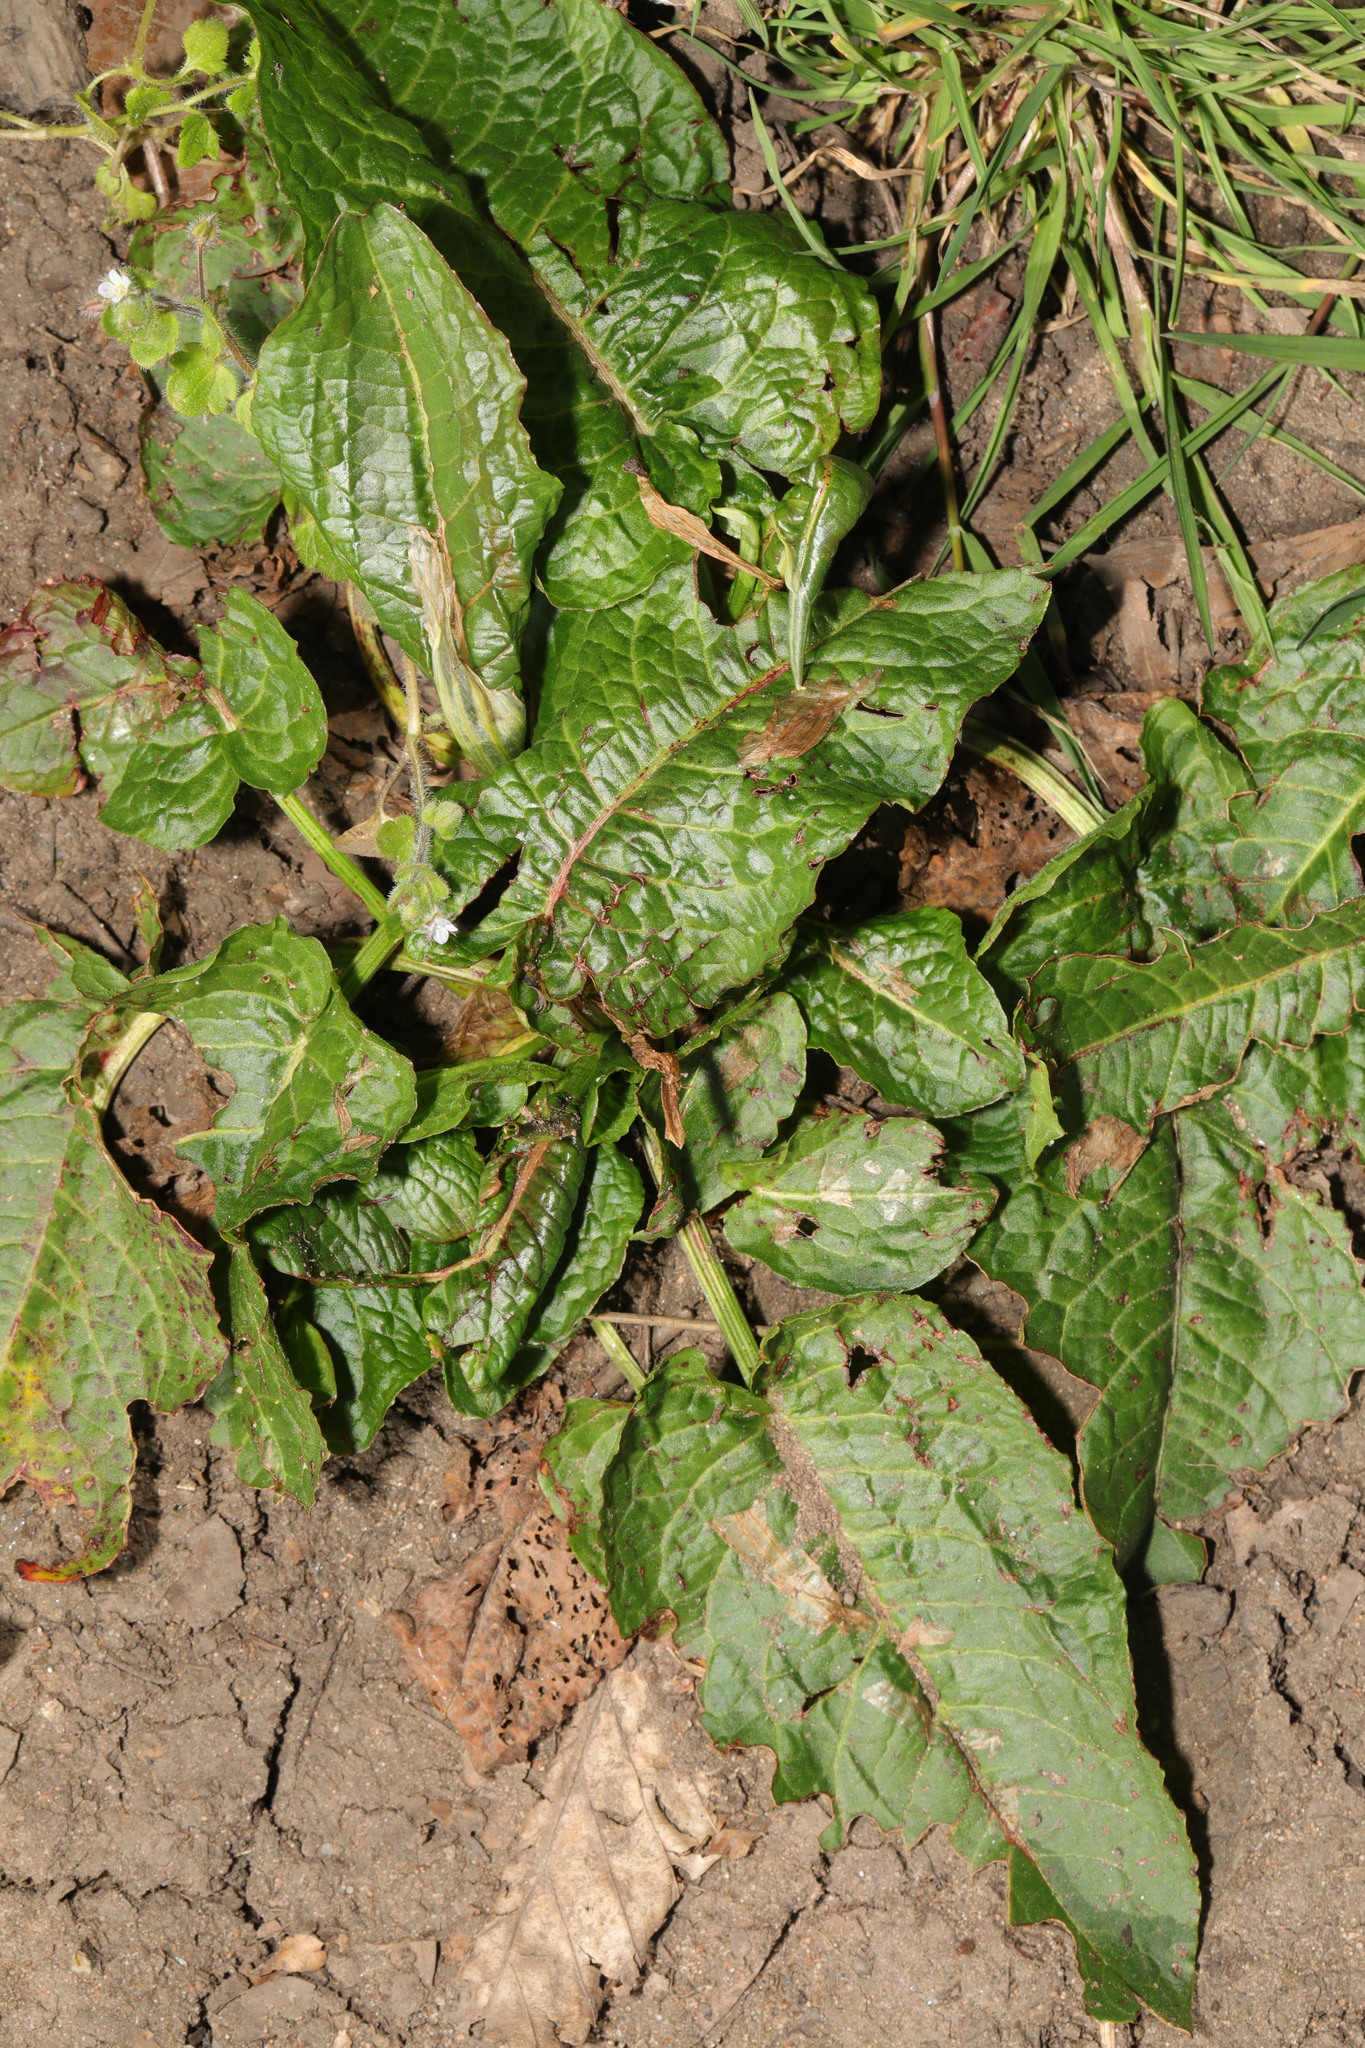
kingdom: Plantae
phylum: Tracheophyta
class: Magnoliopsida
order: Caryophyllales
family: Polygonaceae
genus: Rumex
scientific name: Rumex obtusifolius
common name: Bitter dock
